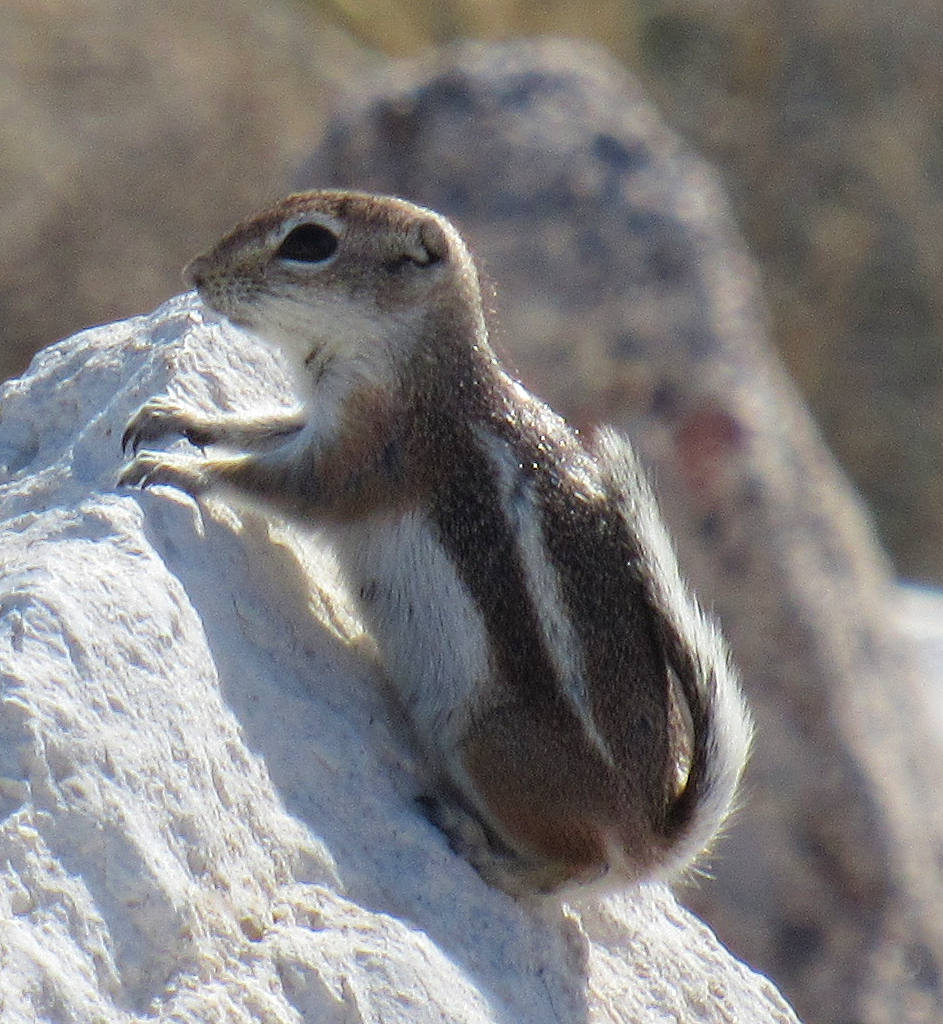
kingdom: Animalia
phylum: Chordata
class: Mammalia
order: Rodentia
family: Sciuridae
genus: Ammospermophilus
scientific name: Ammospermophilus leucurus
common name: White-tailed antelope squirrel
